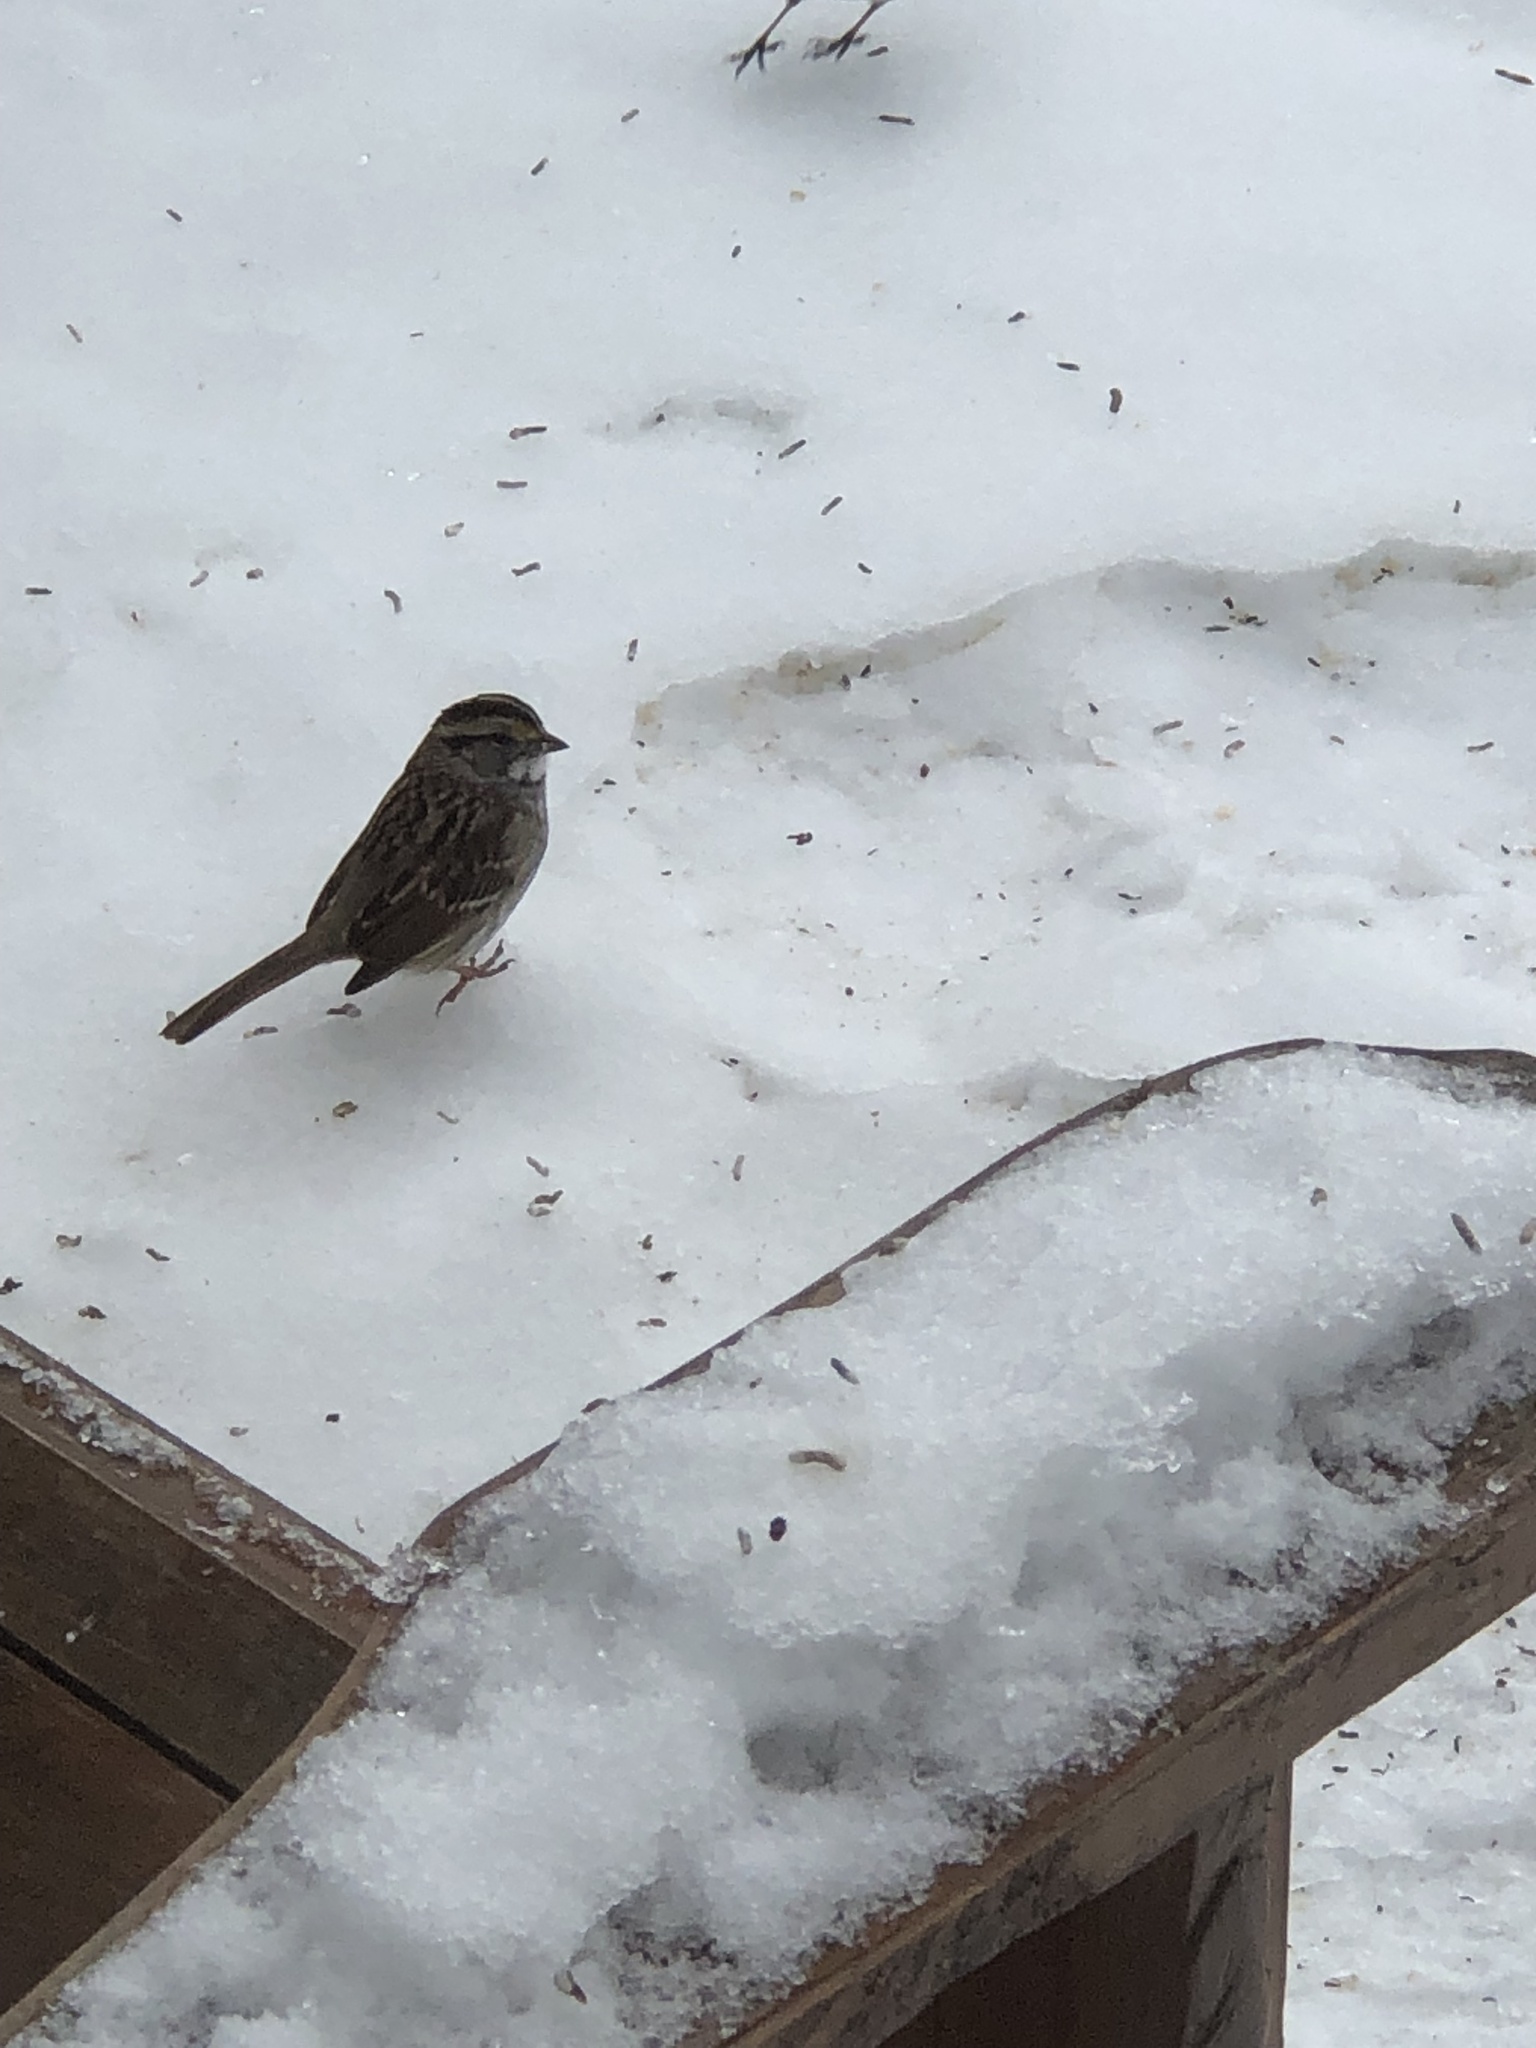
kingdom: Animalia
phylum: Chordata
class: Aves
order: Passeriformes
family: Passerellidae
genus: Zonotrichia
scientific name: Zonotrichia albicollis
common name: White-throated sparrow
